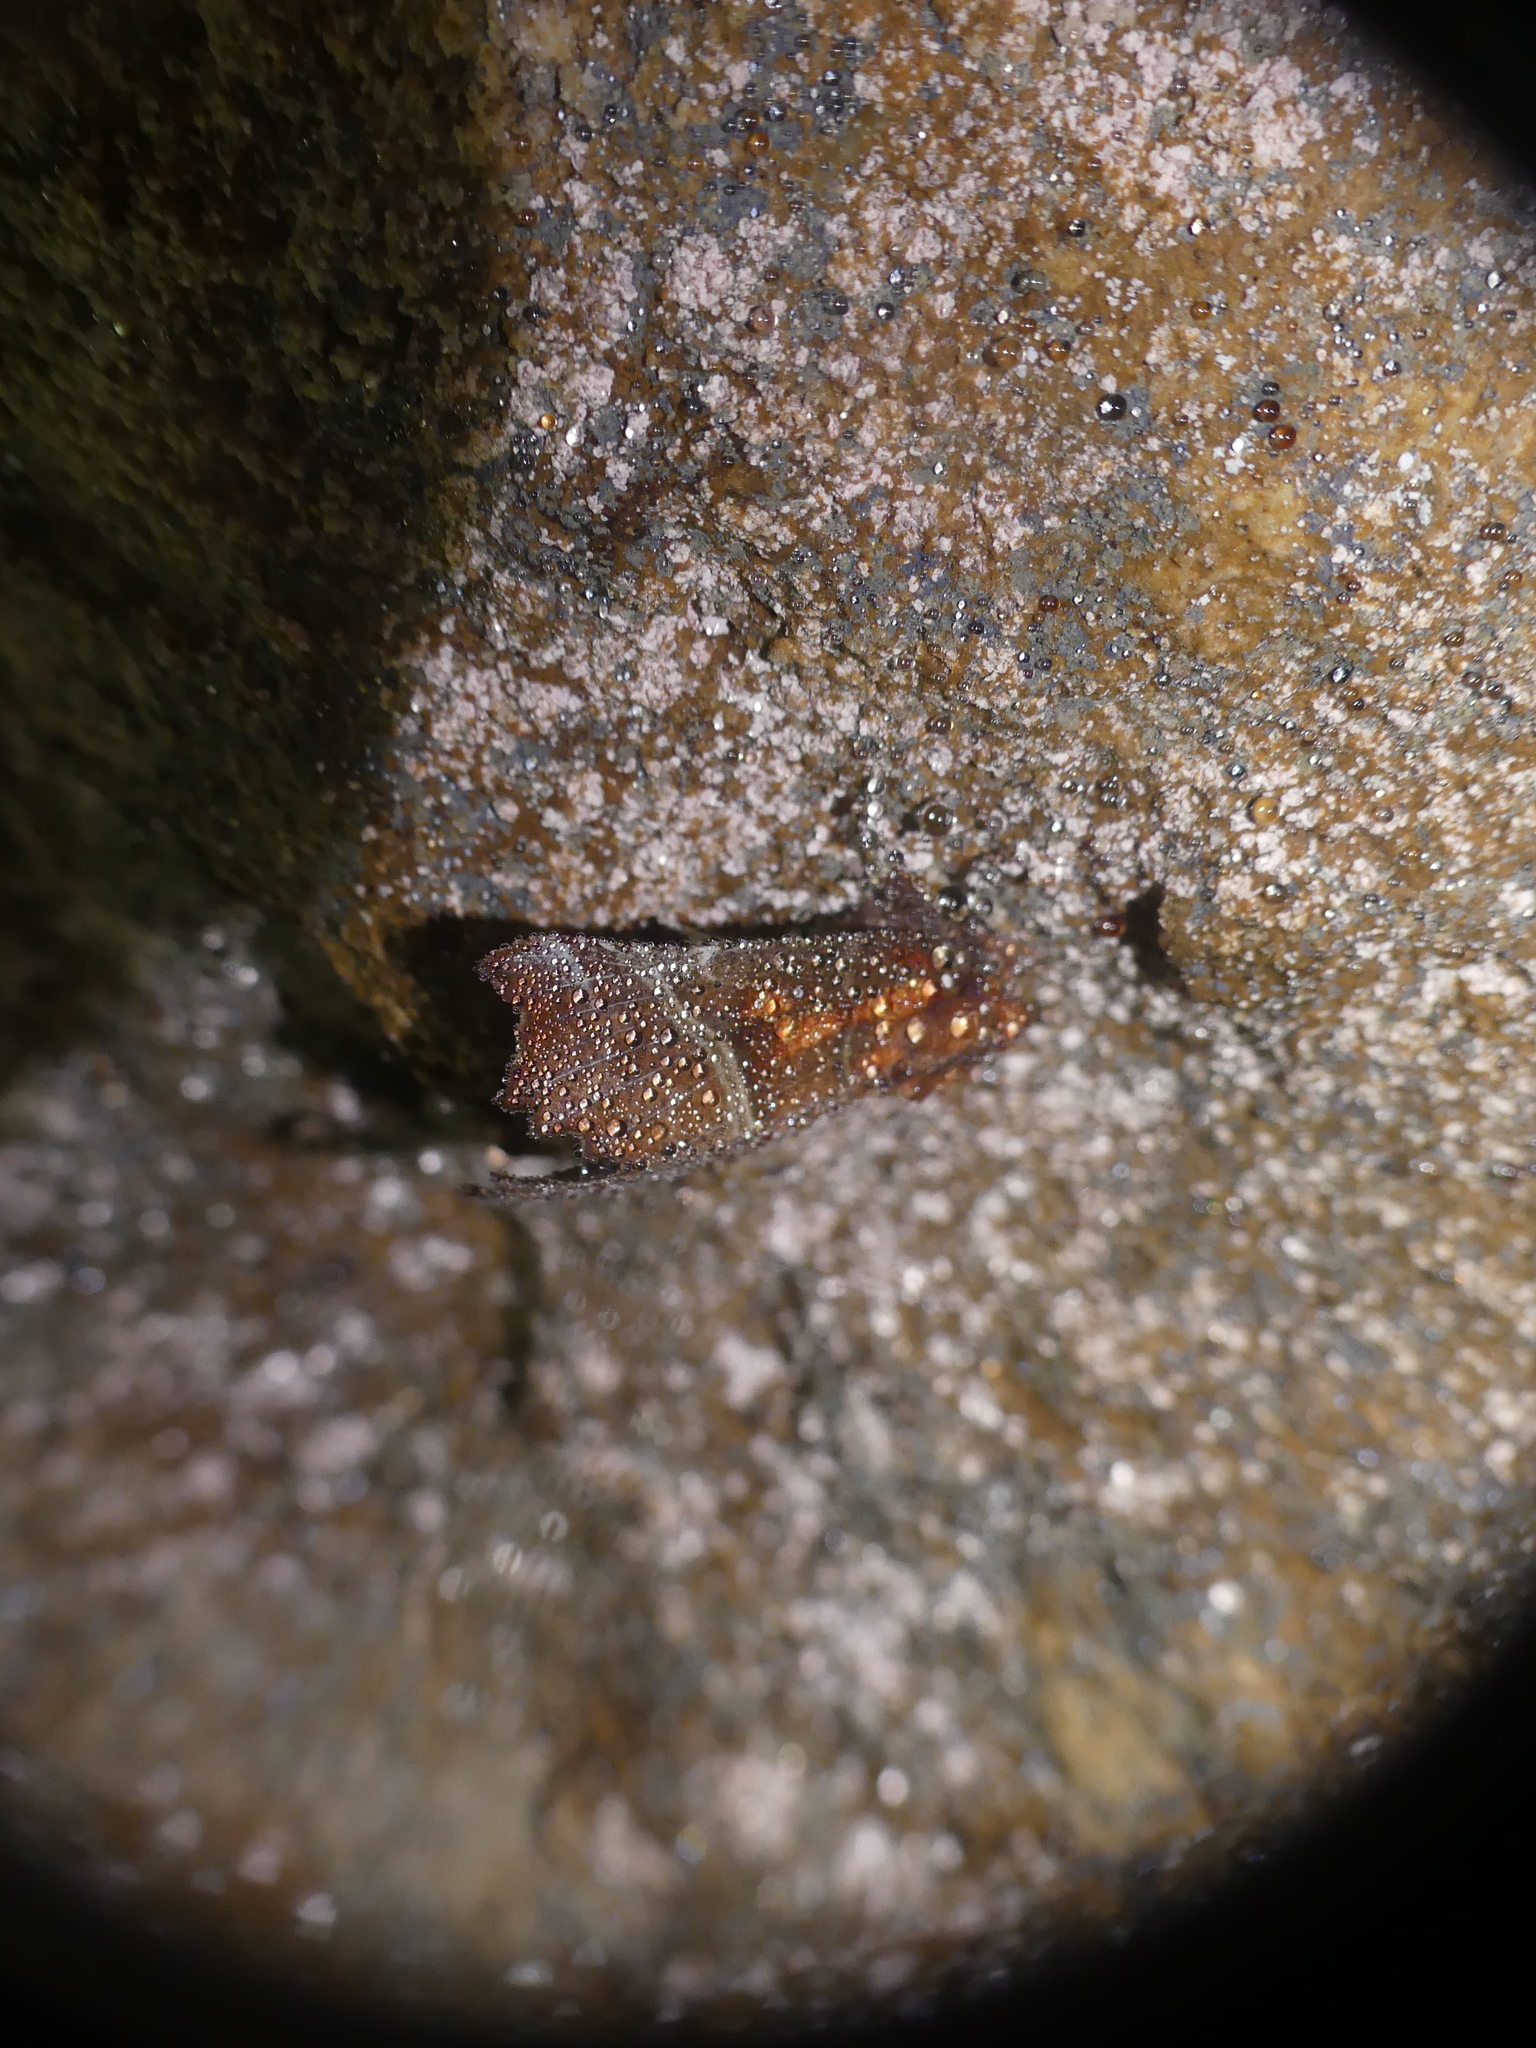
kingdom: Animalia
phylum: Arthropoda
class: Insecta
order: Lepidoptera
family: Erebidae
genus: Scoliopteryx
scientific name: Scoliopteryx libatrix
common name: Herald
